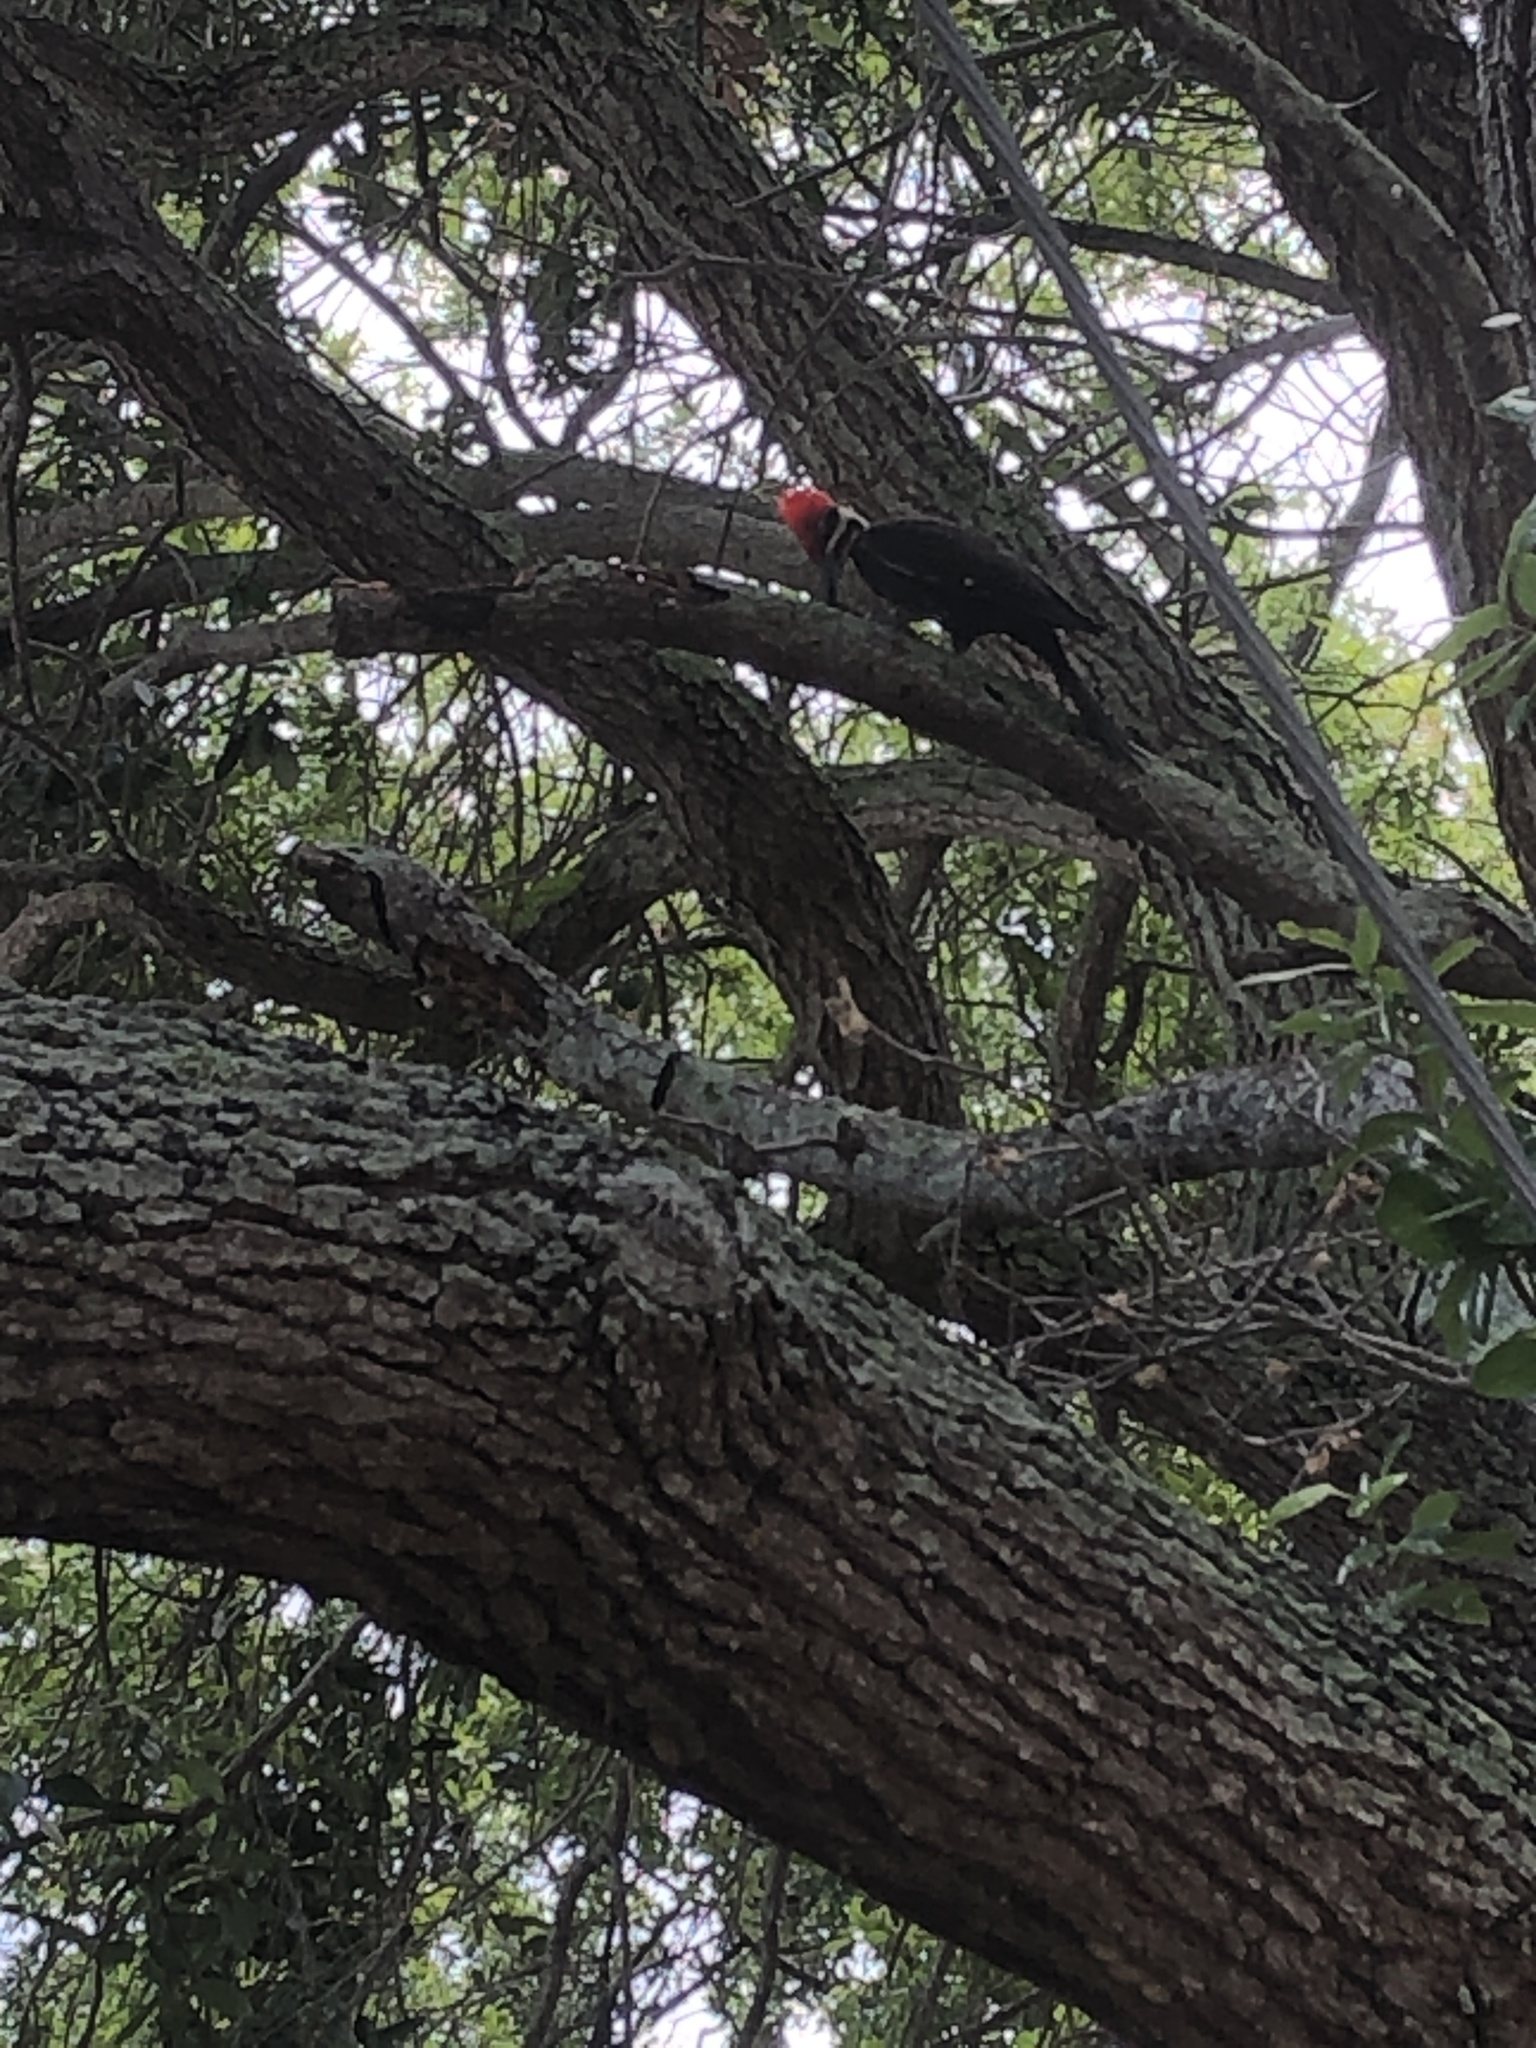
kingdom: Animalia
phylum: Chordata
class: Aves
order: Piciformes
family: Picidae
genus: Dryocopus
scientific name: Dryocopus pileatus
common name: Pileated woodpecker
